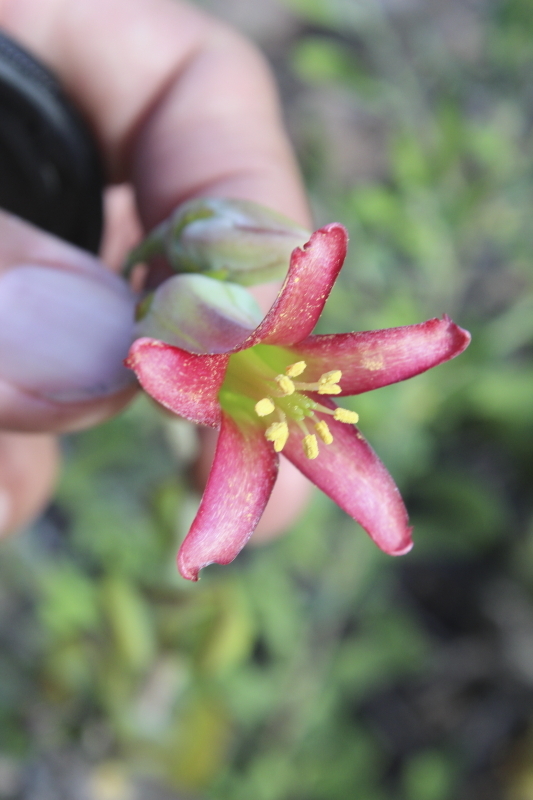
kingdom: Plantae
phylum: Tracheophyta
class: Magnoliopsida
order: Saxifragales
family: Crassulaceae
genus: Cotyledon
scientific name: Cotyledon woodii
